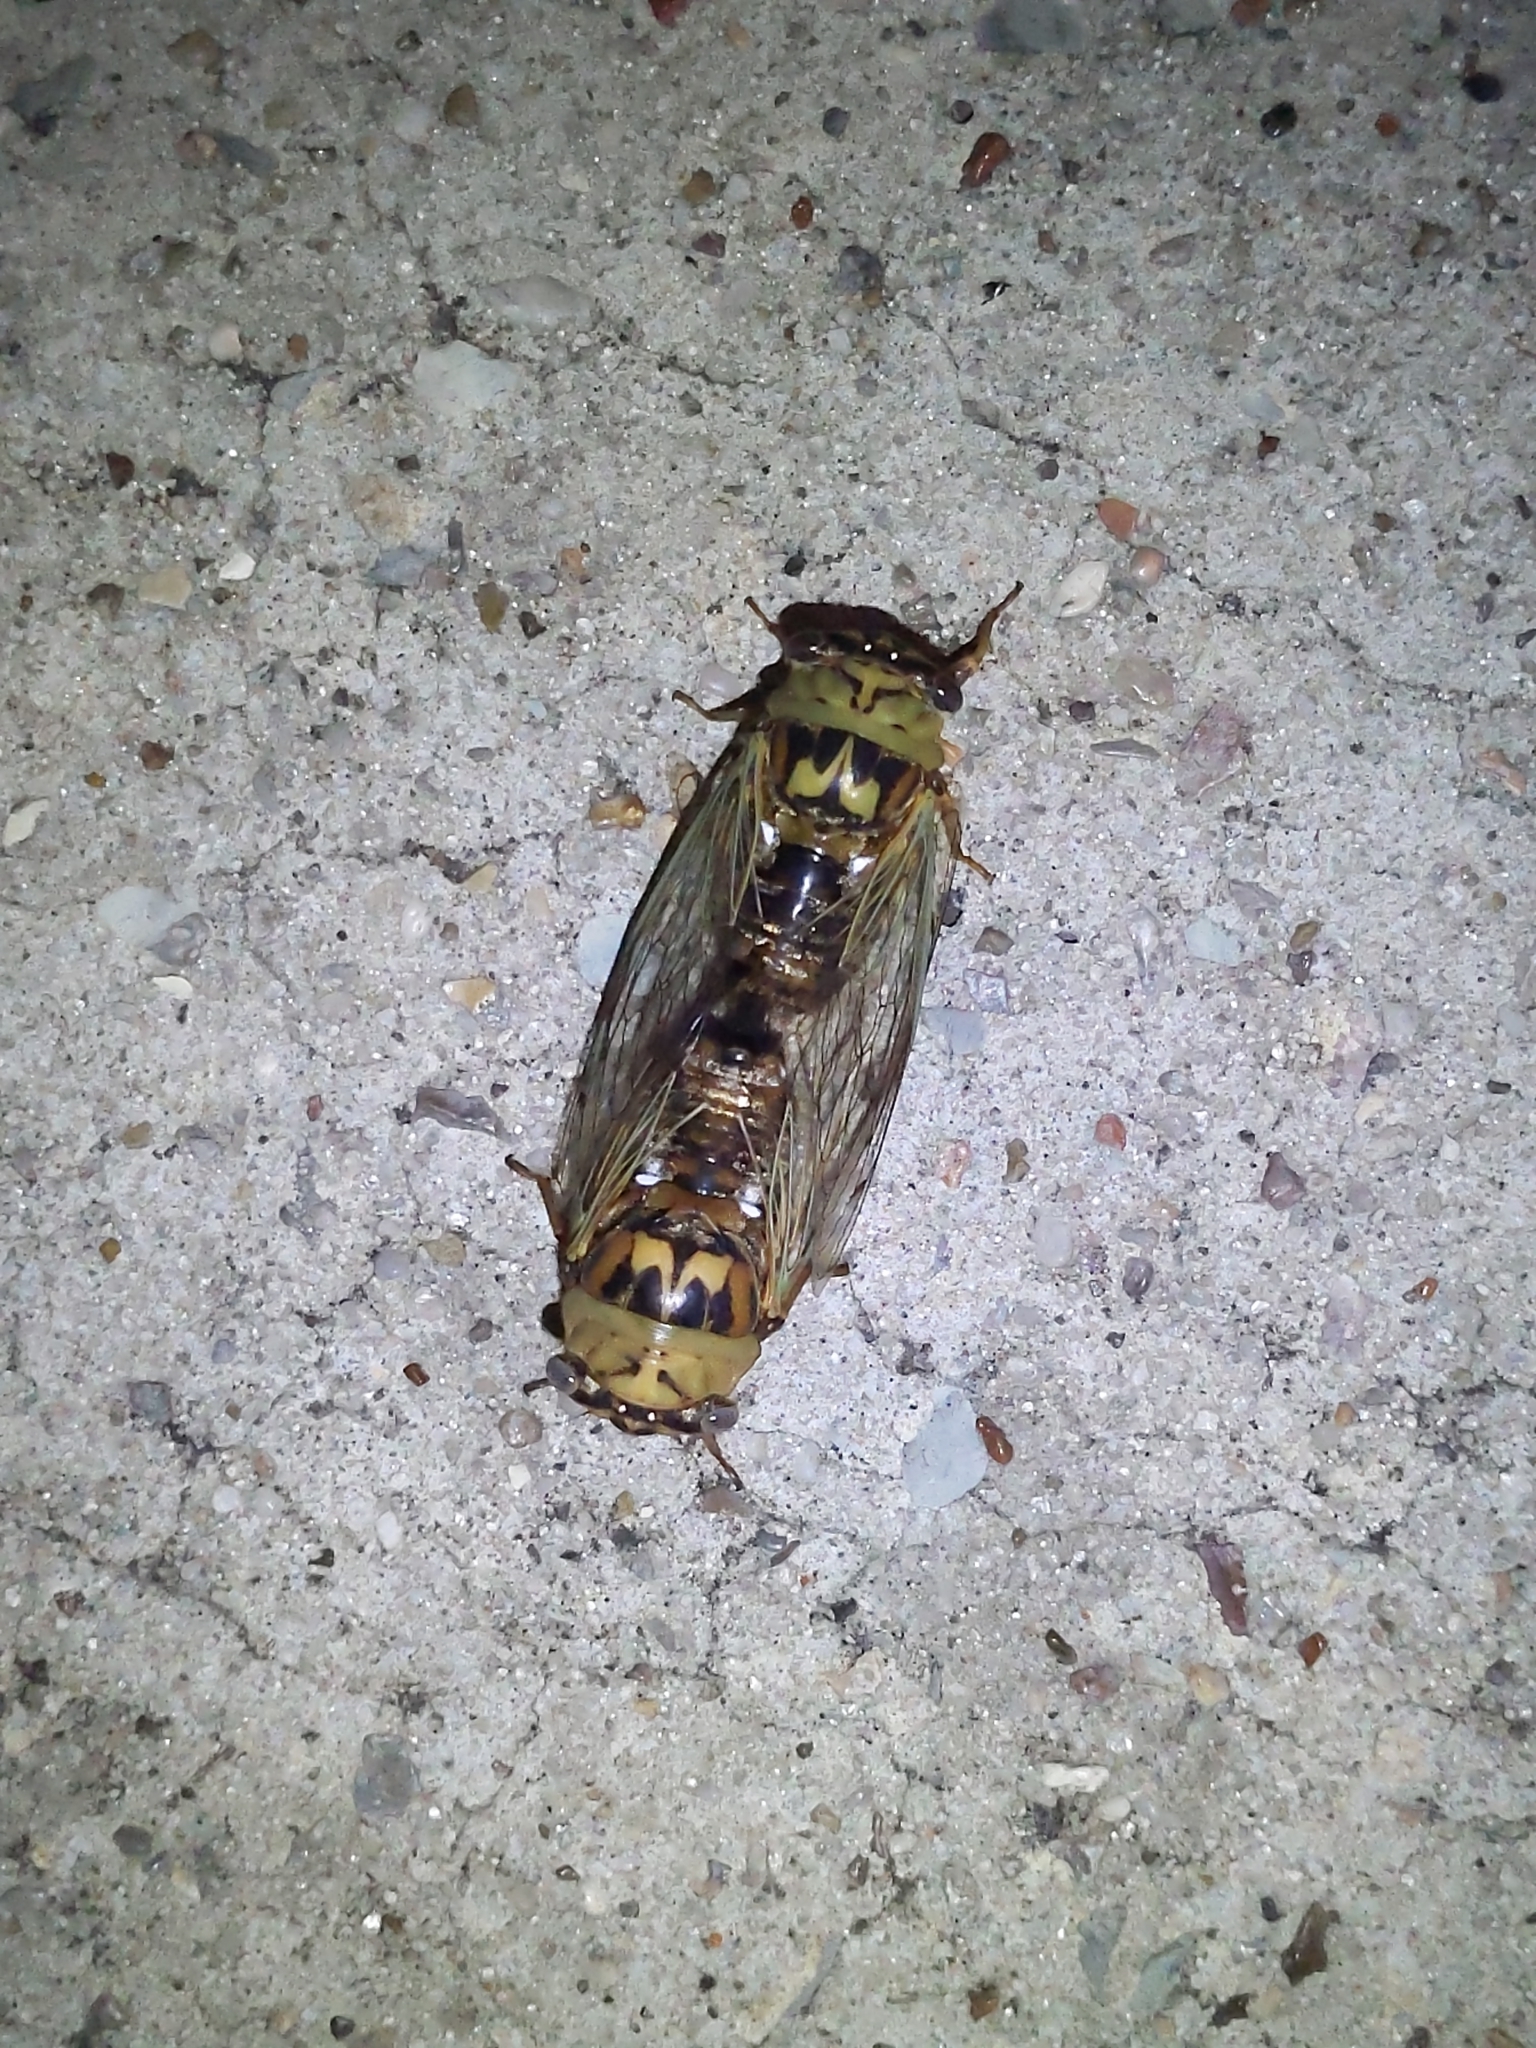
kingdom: Animalia
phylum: Arthropoda
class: Insecta
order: Hemiptera
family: Cicadidae
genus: Megatibicen
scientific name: Megatibicen resh
